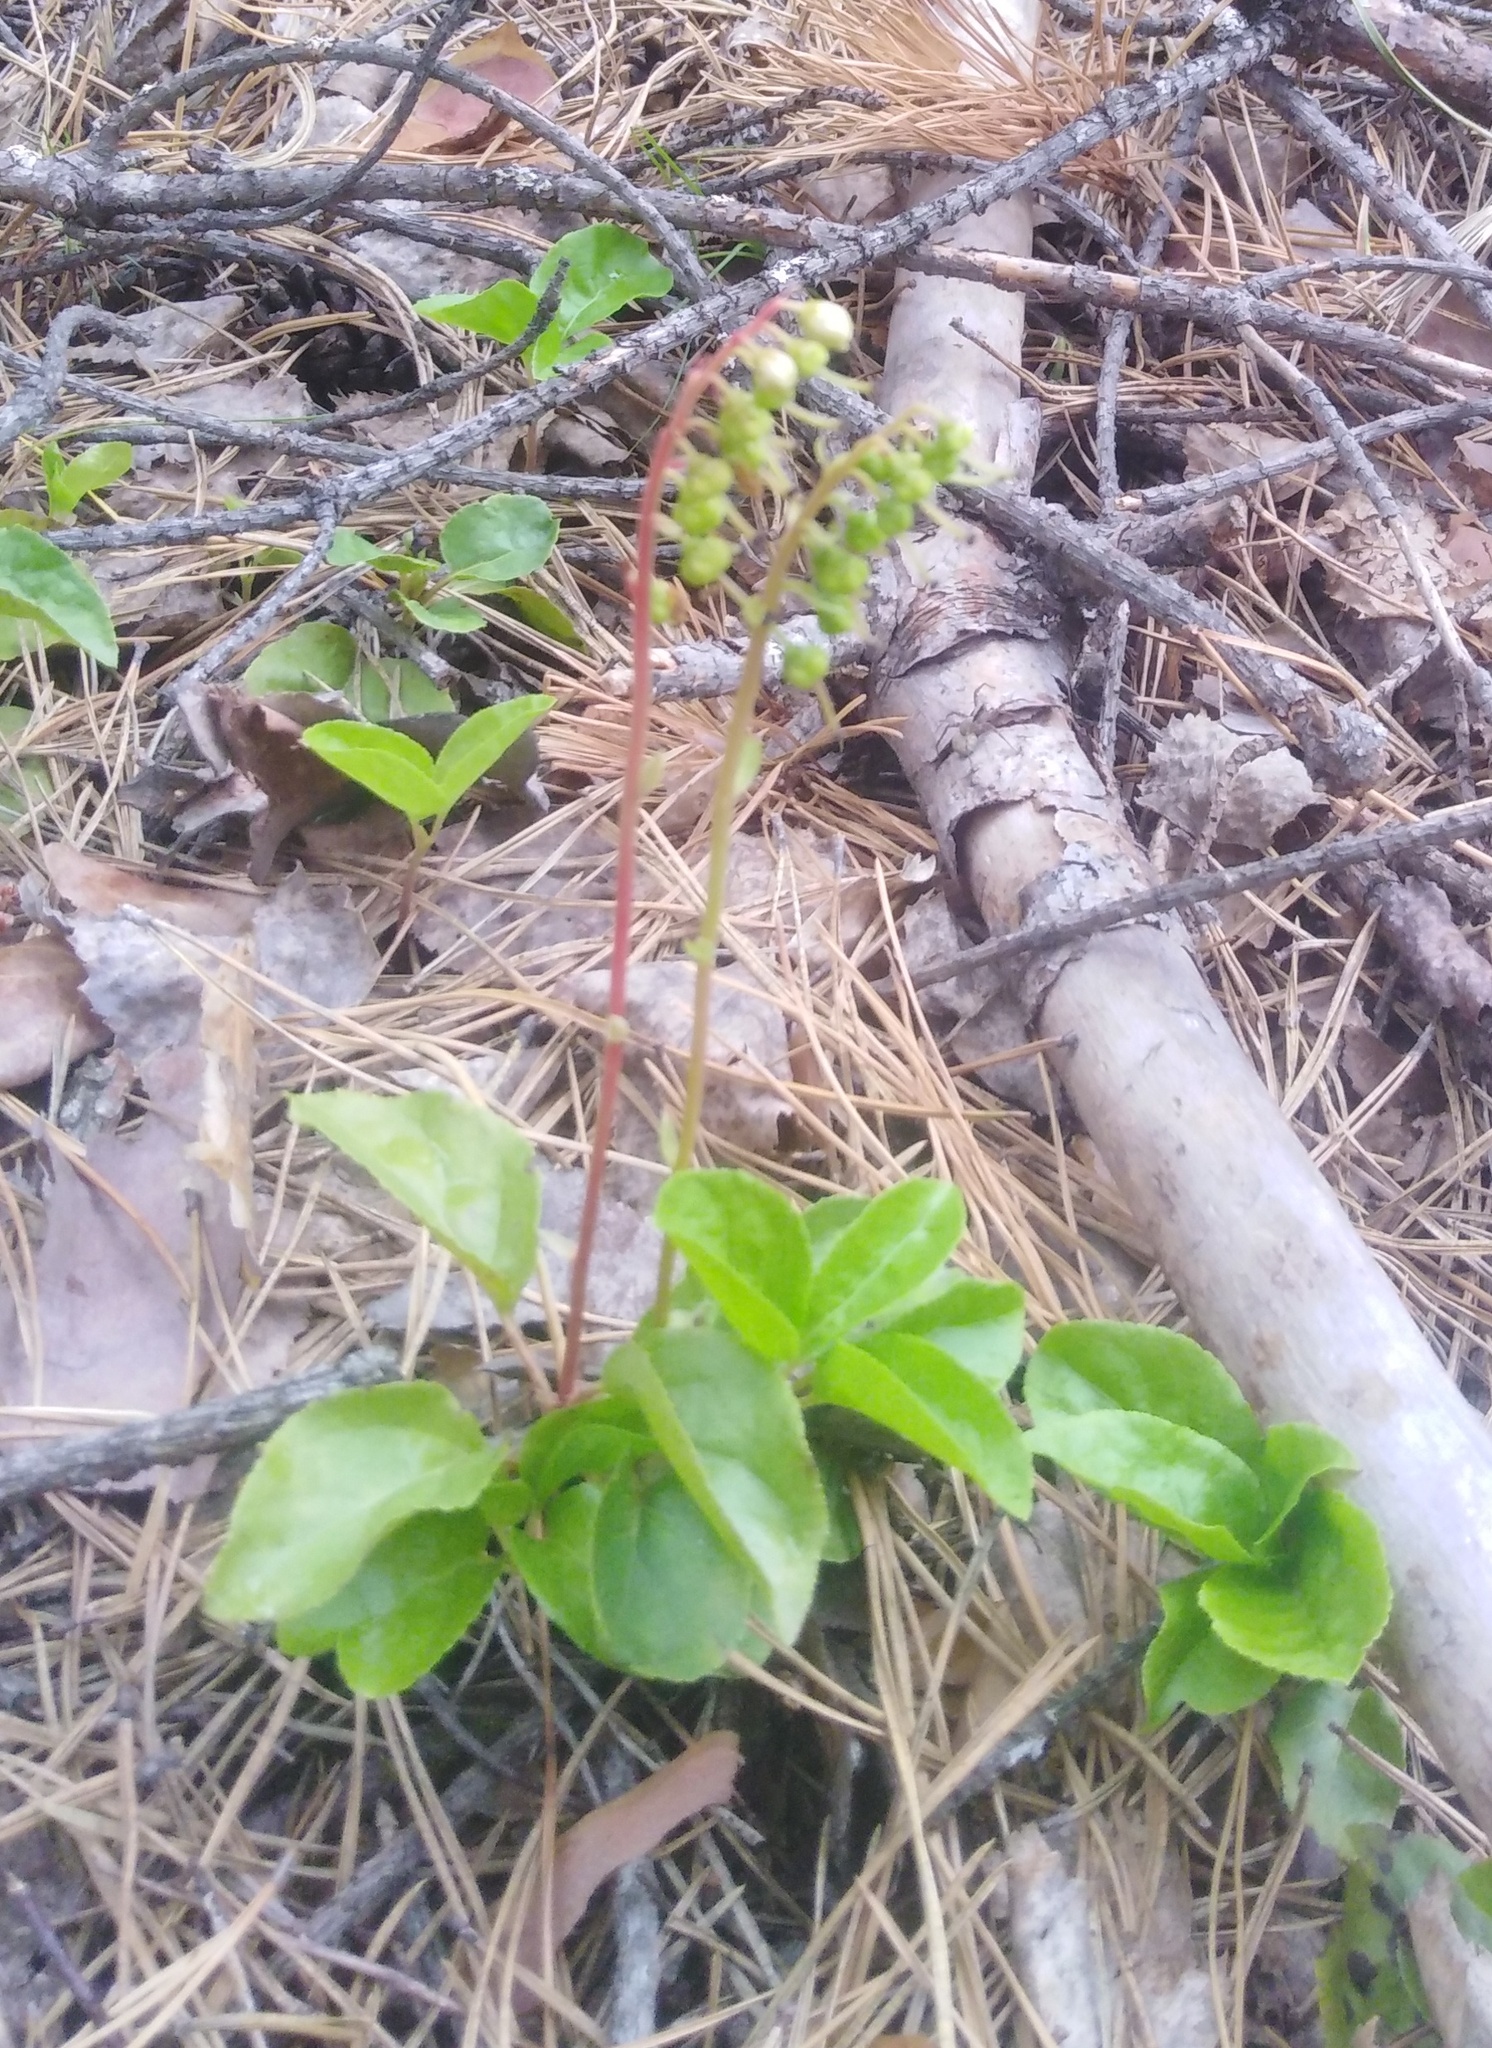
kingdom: Plantae
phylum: Tracheophyta
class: Magnoliopsida
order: Ericales
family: Ericaceae
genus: Orthilia
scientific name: Orthilia secunda
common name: One-sided orthilia
